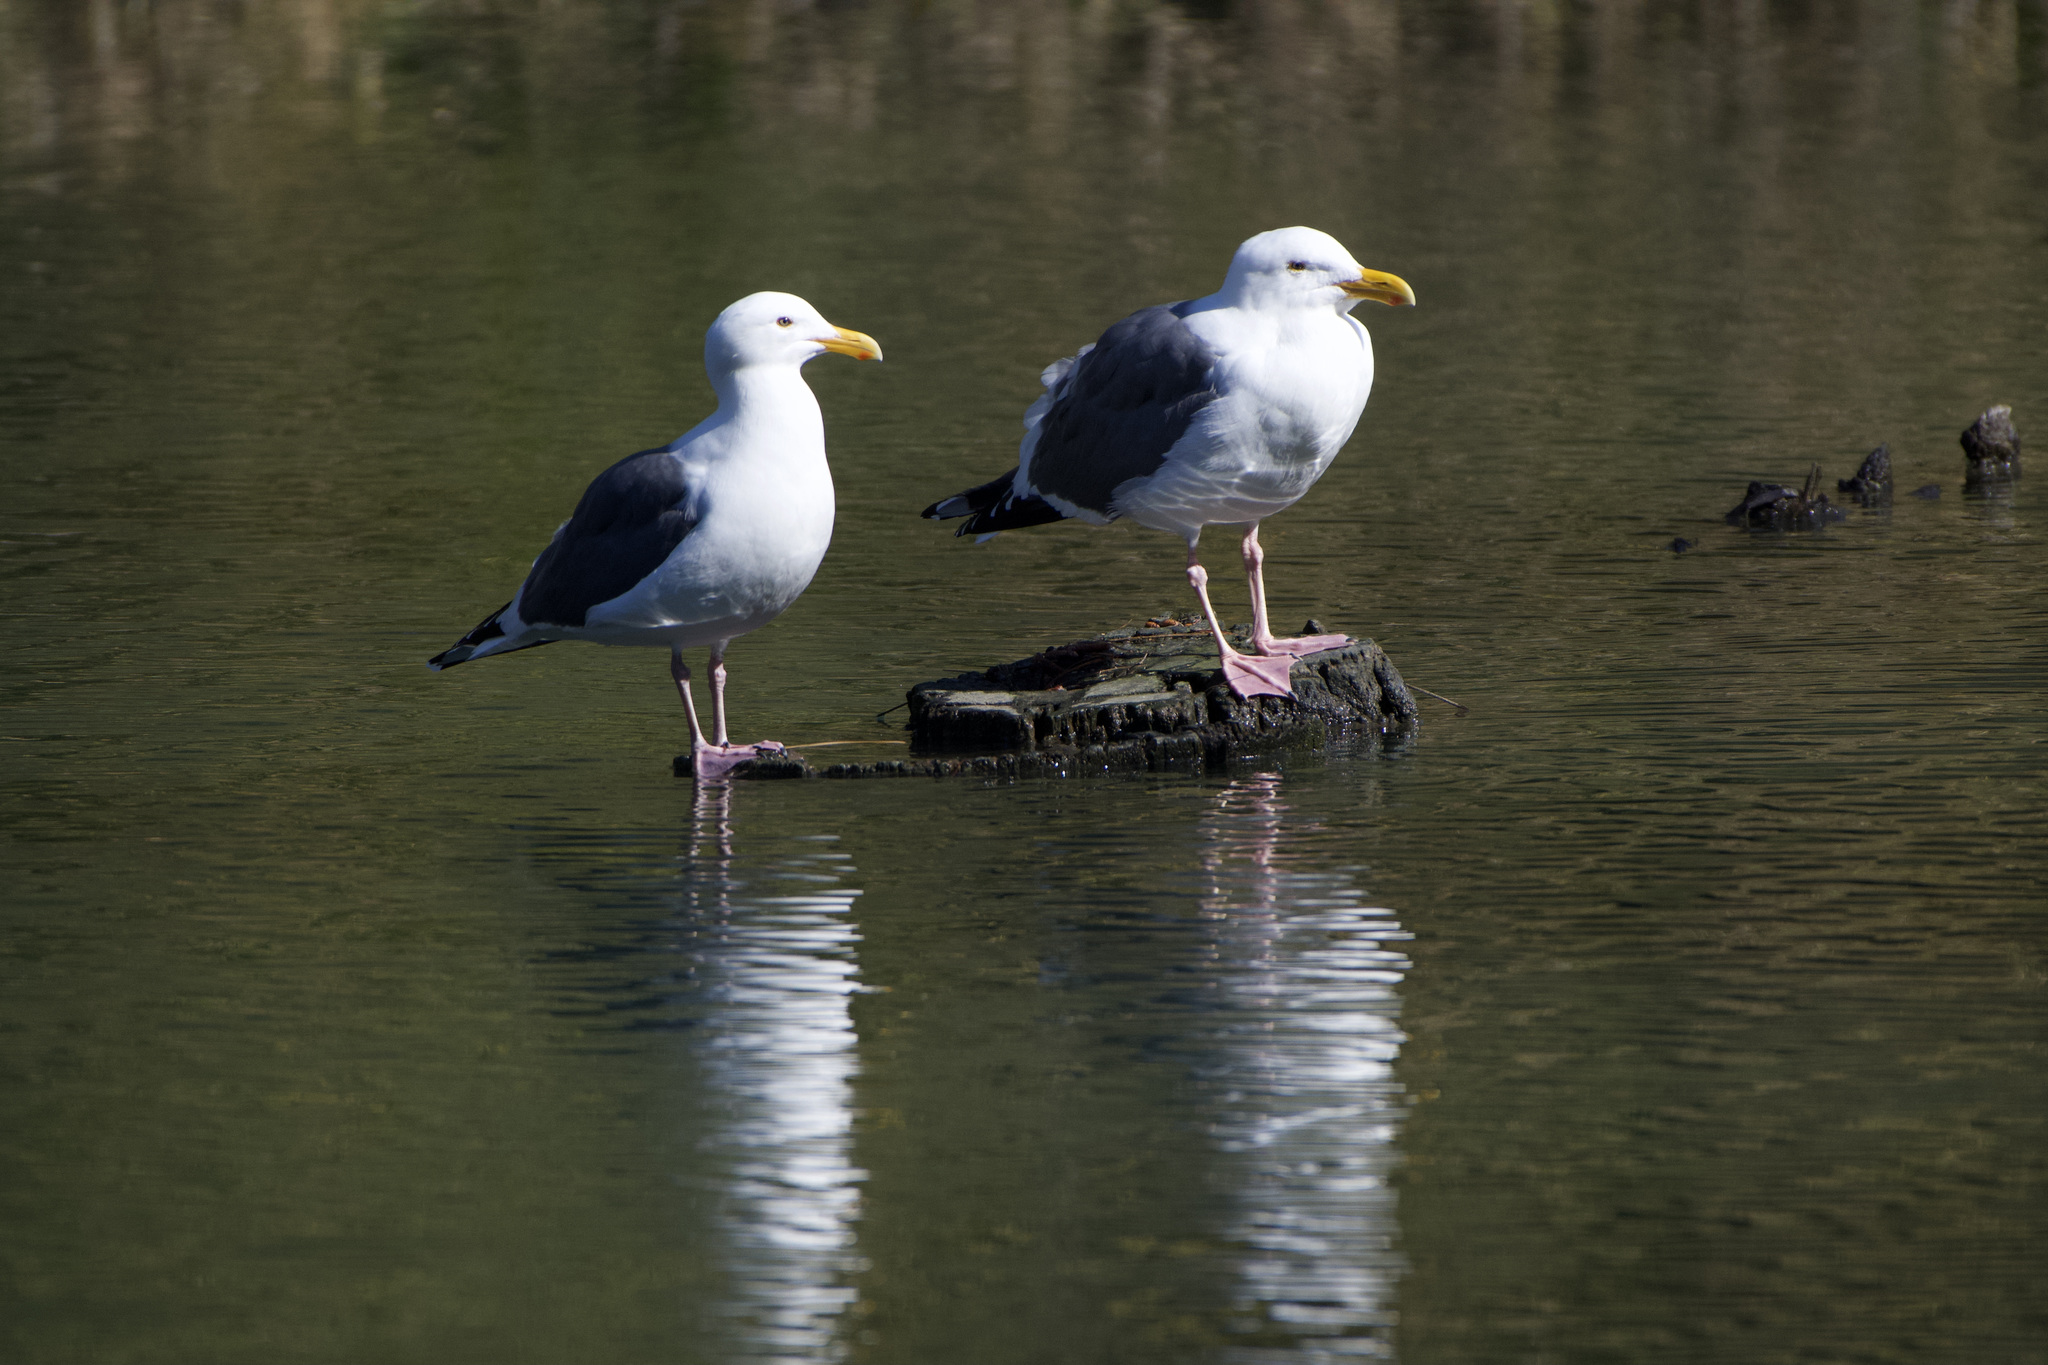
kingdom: Animalia
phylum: Chordata
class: Aves
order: Charadriiformes
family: Laridae
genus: Larus
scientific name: Larus occidentalis
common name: Western gull
